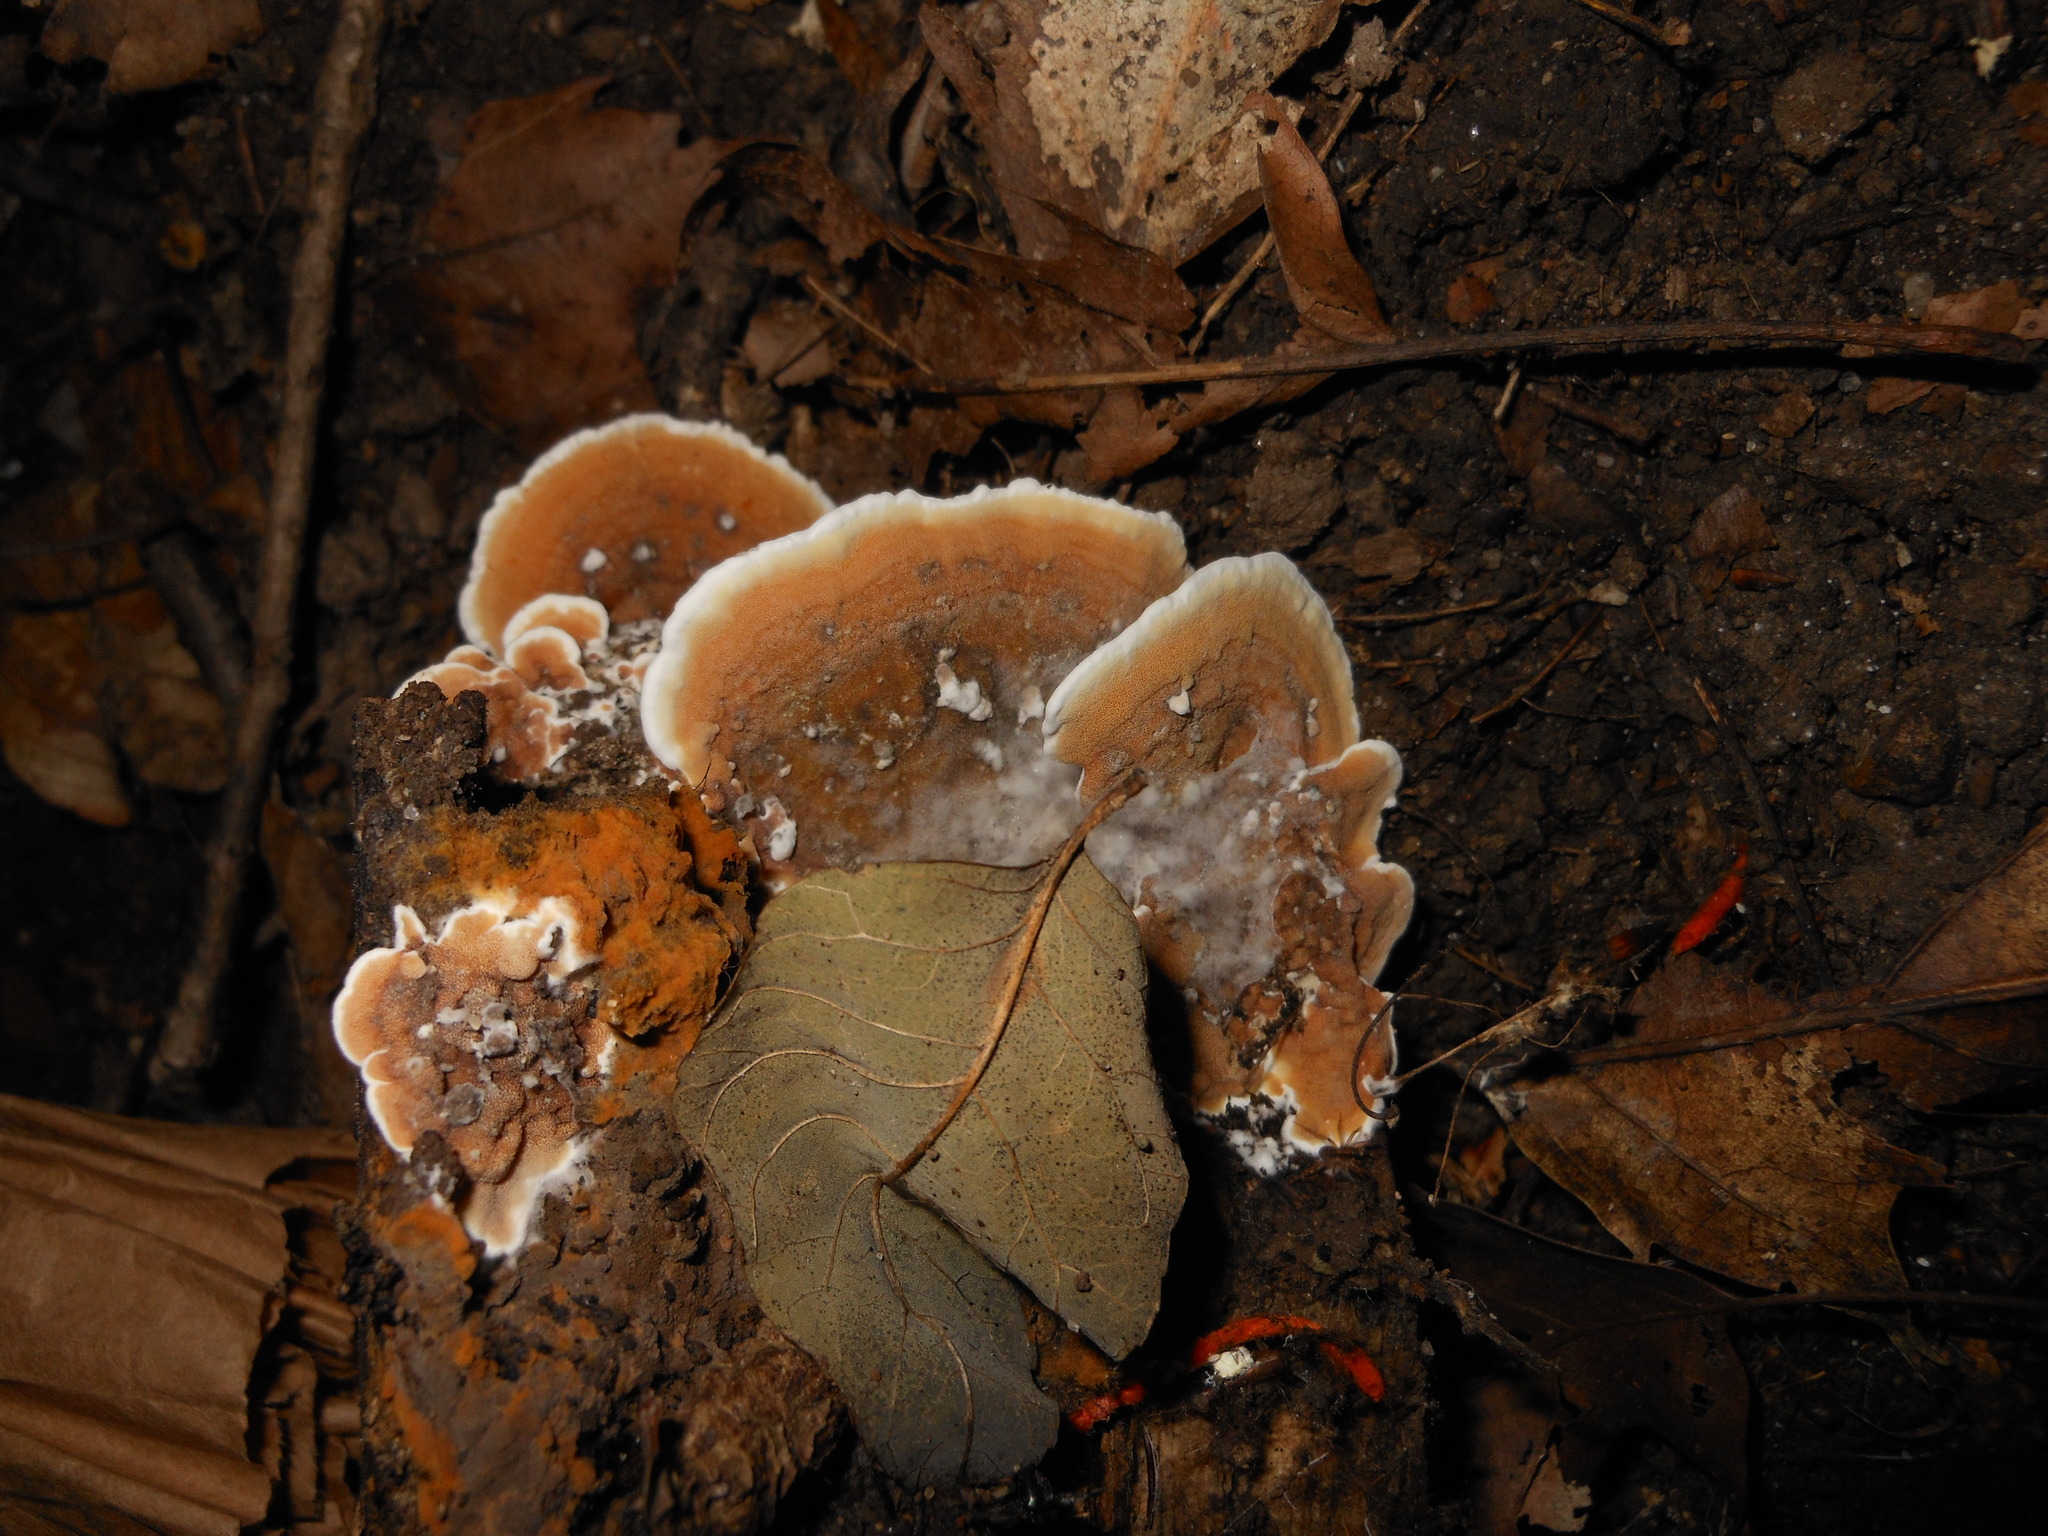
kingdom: Fungi
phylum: Basidiomycota
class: Agaricomycetes
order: Polyporales
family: Irpicaceae
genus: Vitreoporus
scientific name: Vitreoporus dichrous
